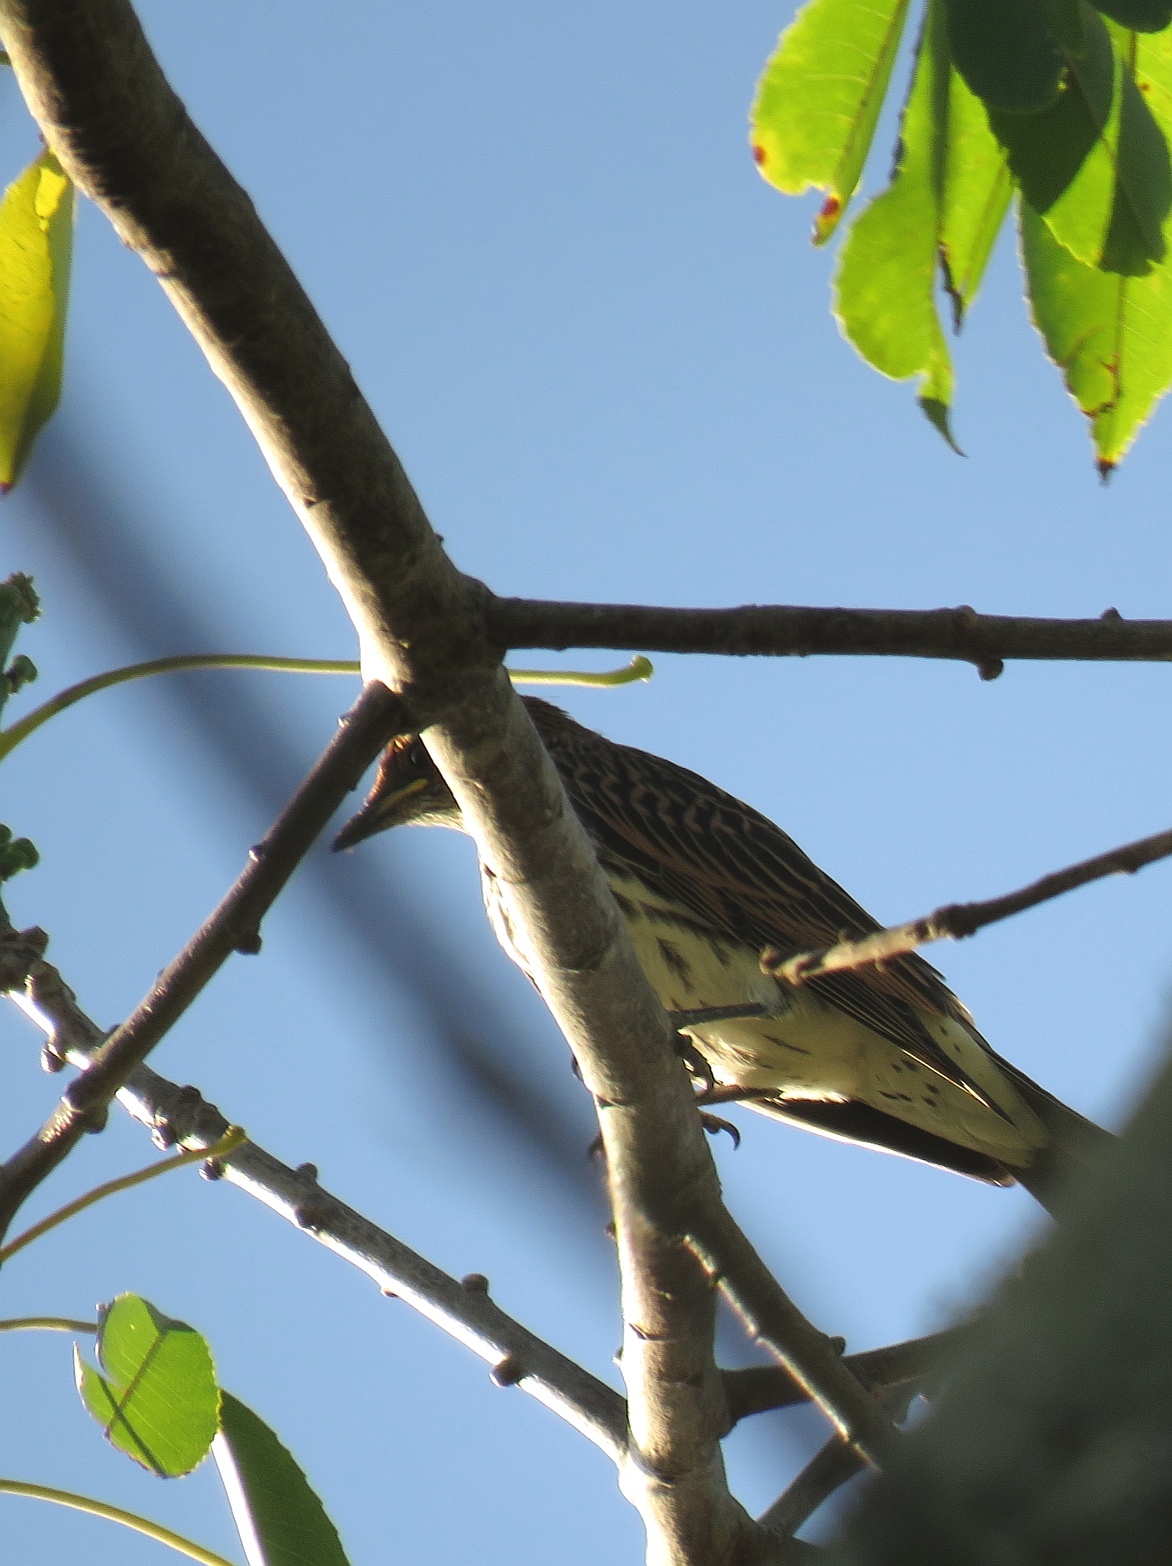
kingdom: Animalia
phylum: Chordata
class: Aves
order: Passeriformes
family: Sturnidae
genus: Cinnyricinclus
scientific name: Cinnyricinclus leucogaster
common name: Violet-backed starling
